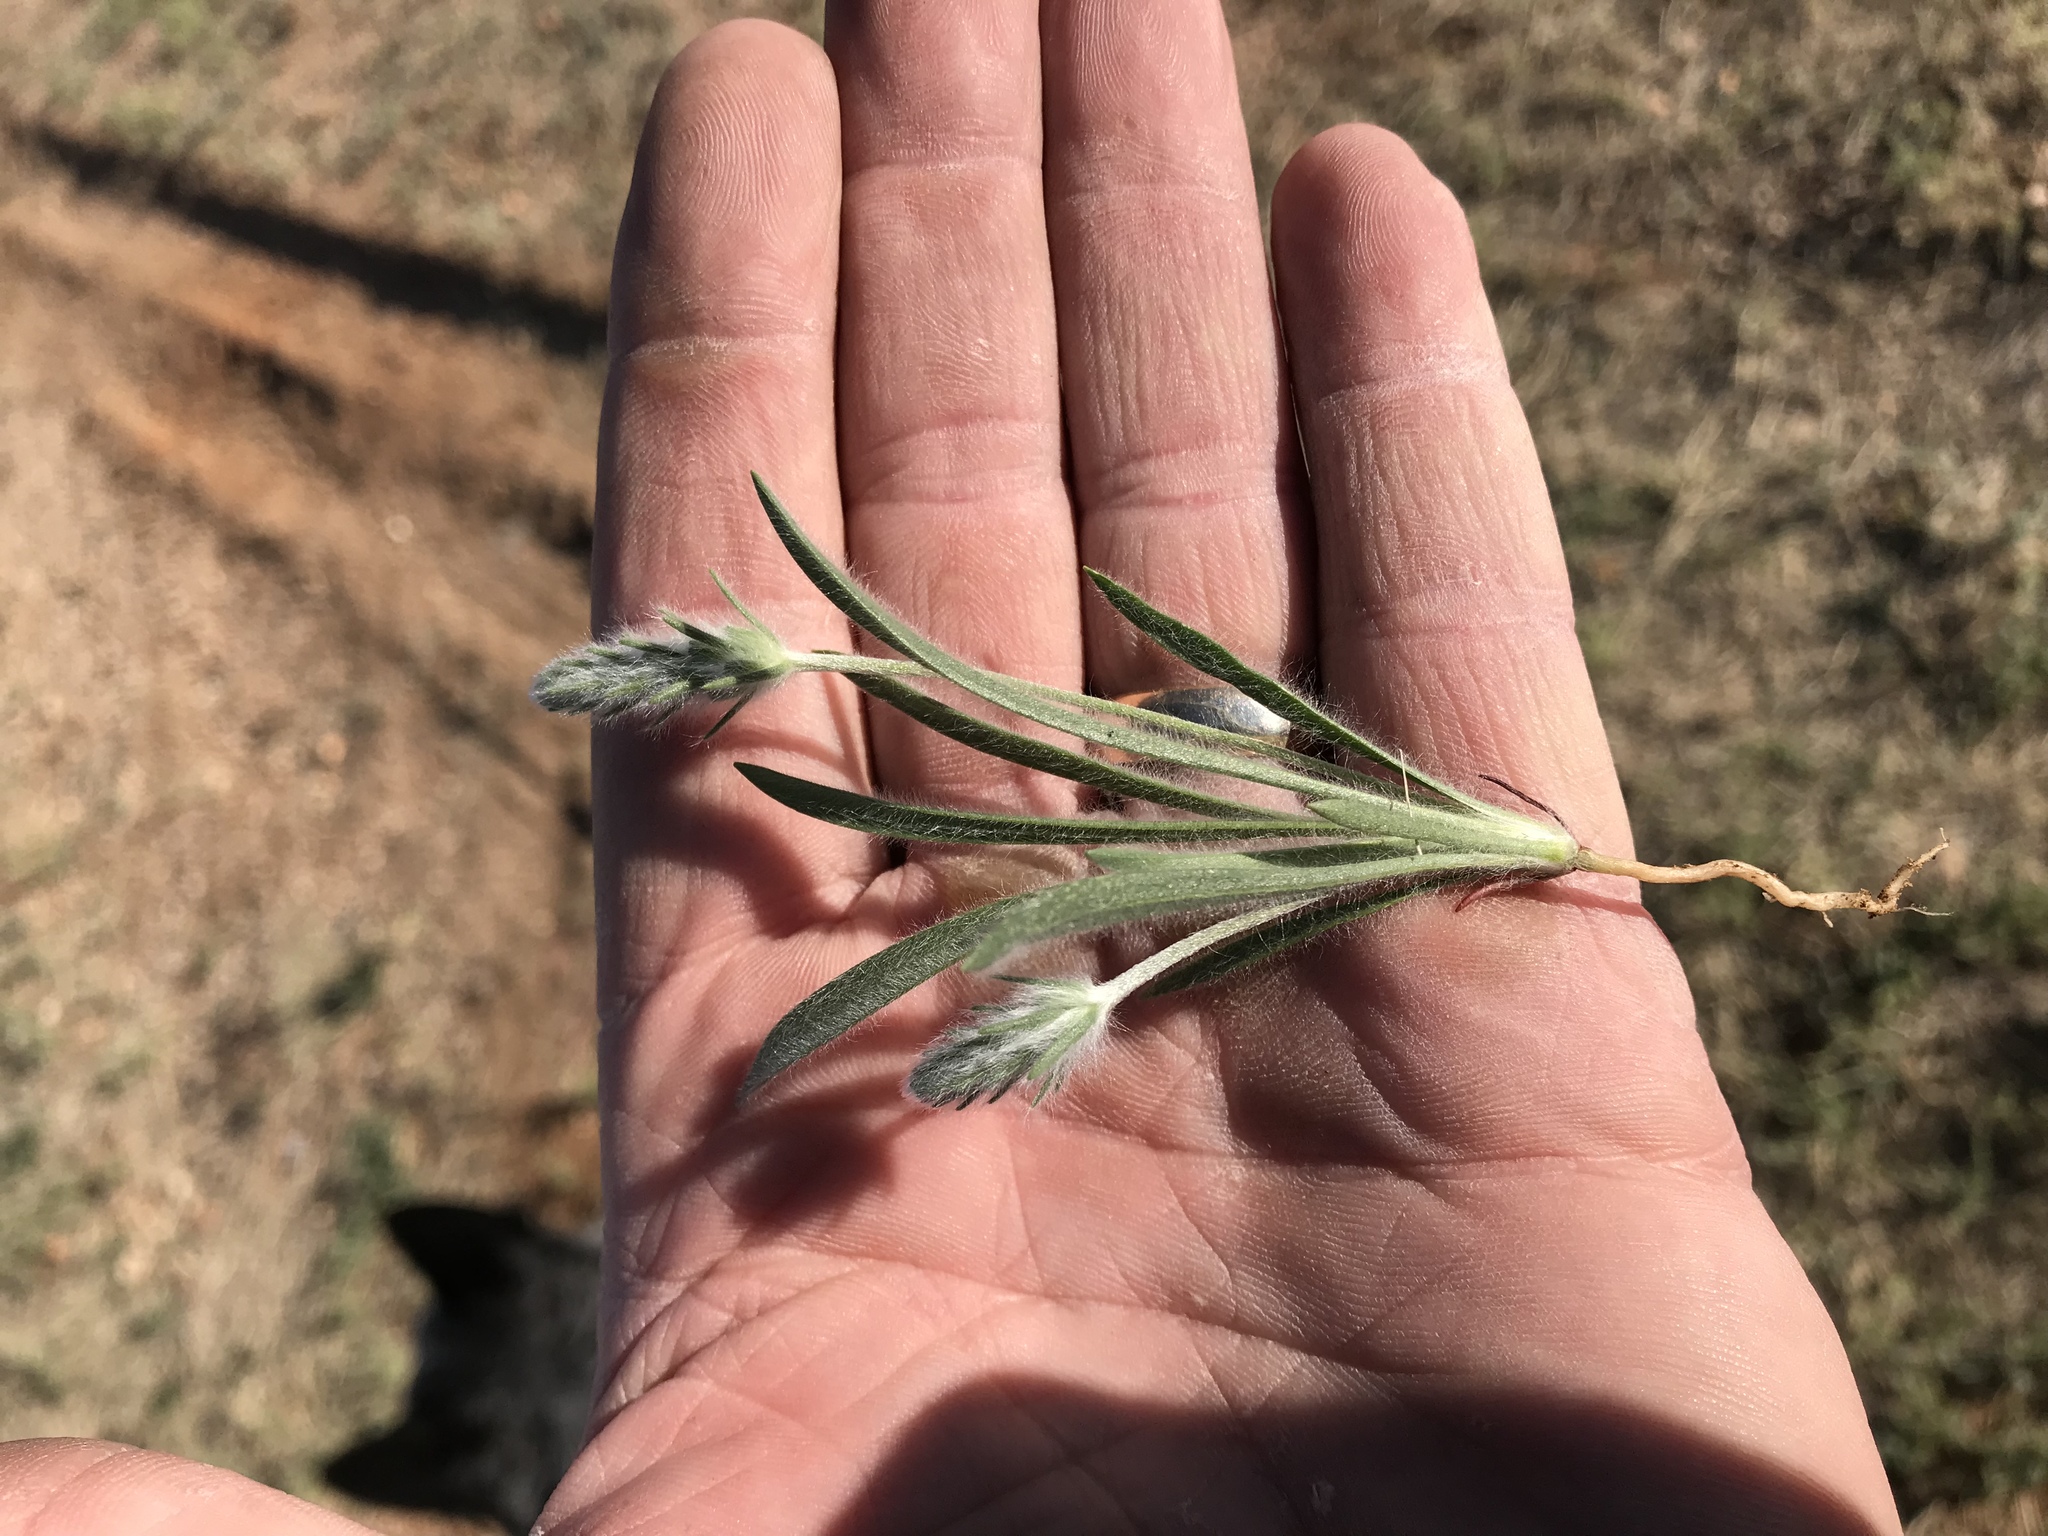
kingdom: Plantae
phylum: Tracheophyta
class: Magnoliopsida
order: Lamiales
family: Plantaginaceae
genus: Plantago
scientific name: Plantago patagonica
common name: Patagonia indian-wheat
